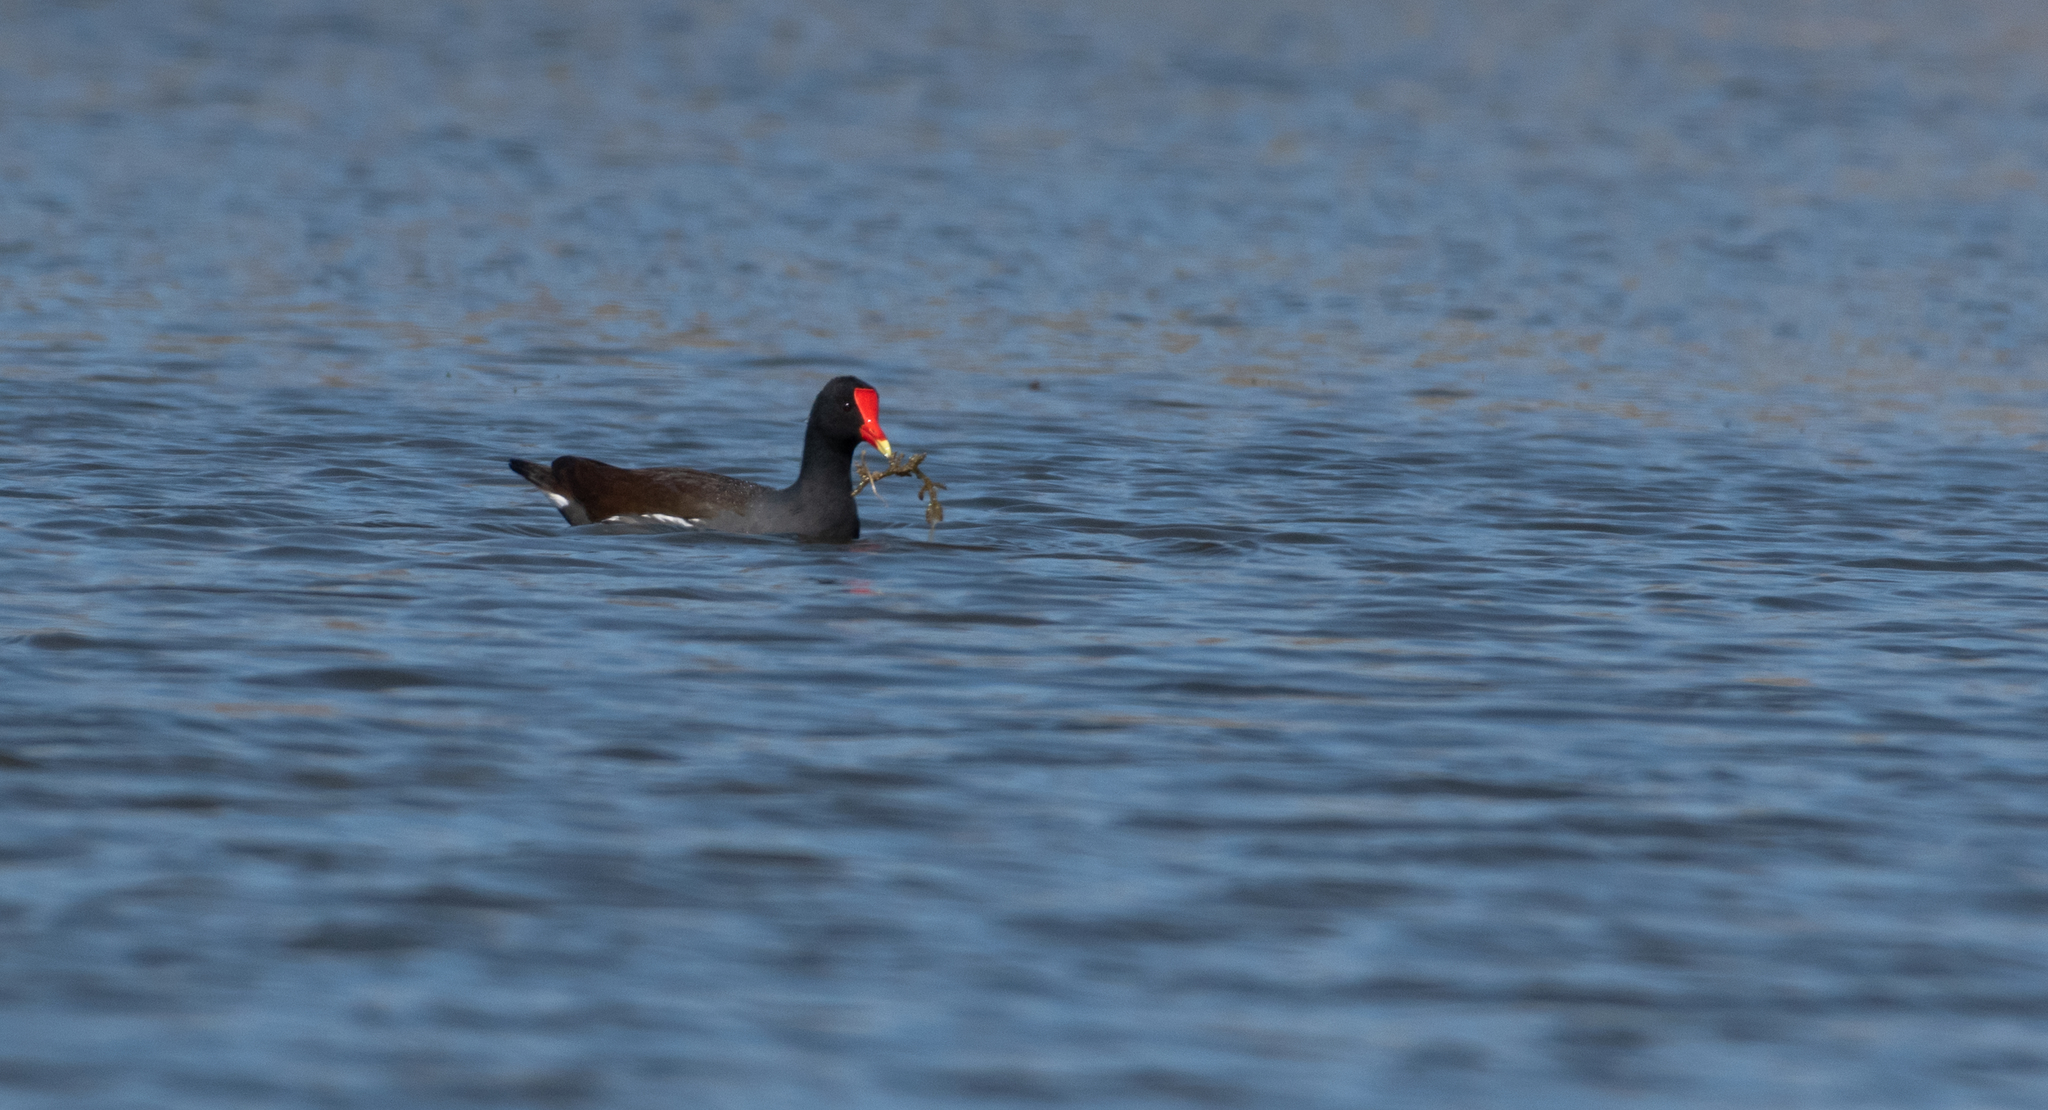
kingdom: Animalia
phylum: Chordata
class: Aves
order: Gruiformes
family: Rallidae
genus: Gallinula
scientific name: Gallinula chloropus
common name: Common moorhen
